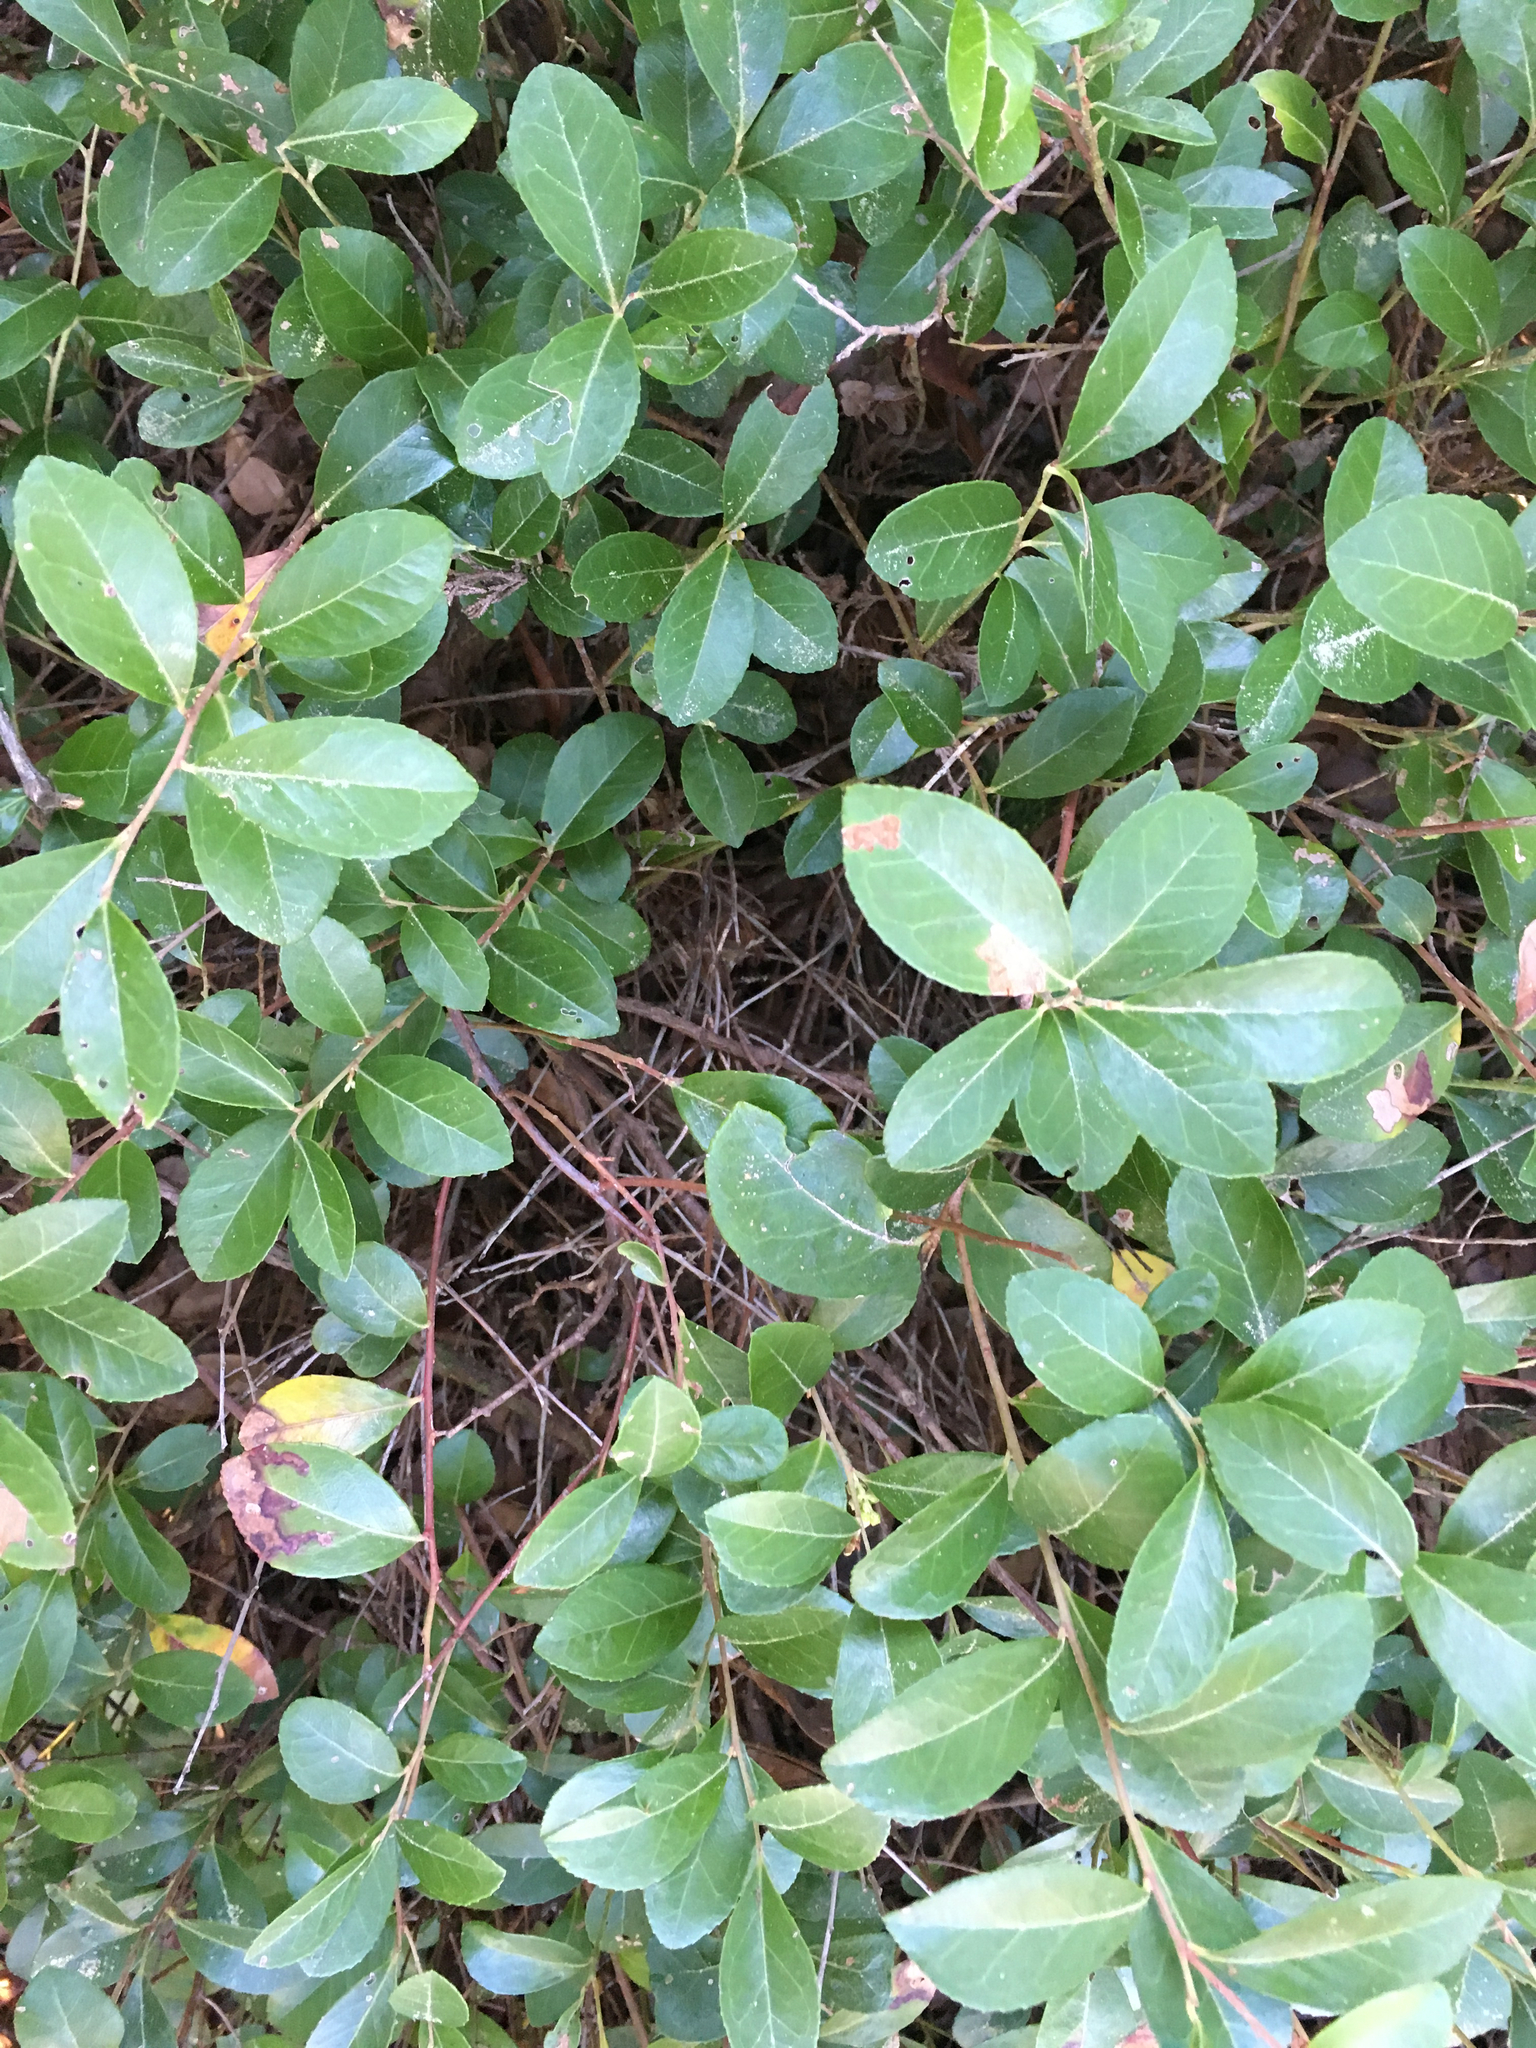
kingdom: Plantae
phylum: Tracheophyta
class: Magnoliopsida
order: Ericales
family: Ericaceae
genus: Vaccinium
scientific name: Vaccinium crassifolium
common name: Creeping blueberry
